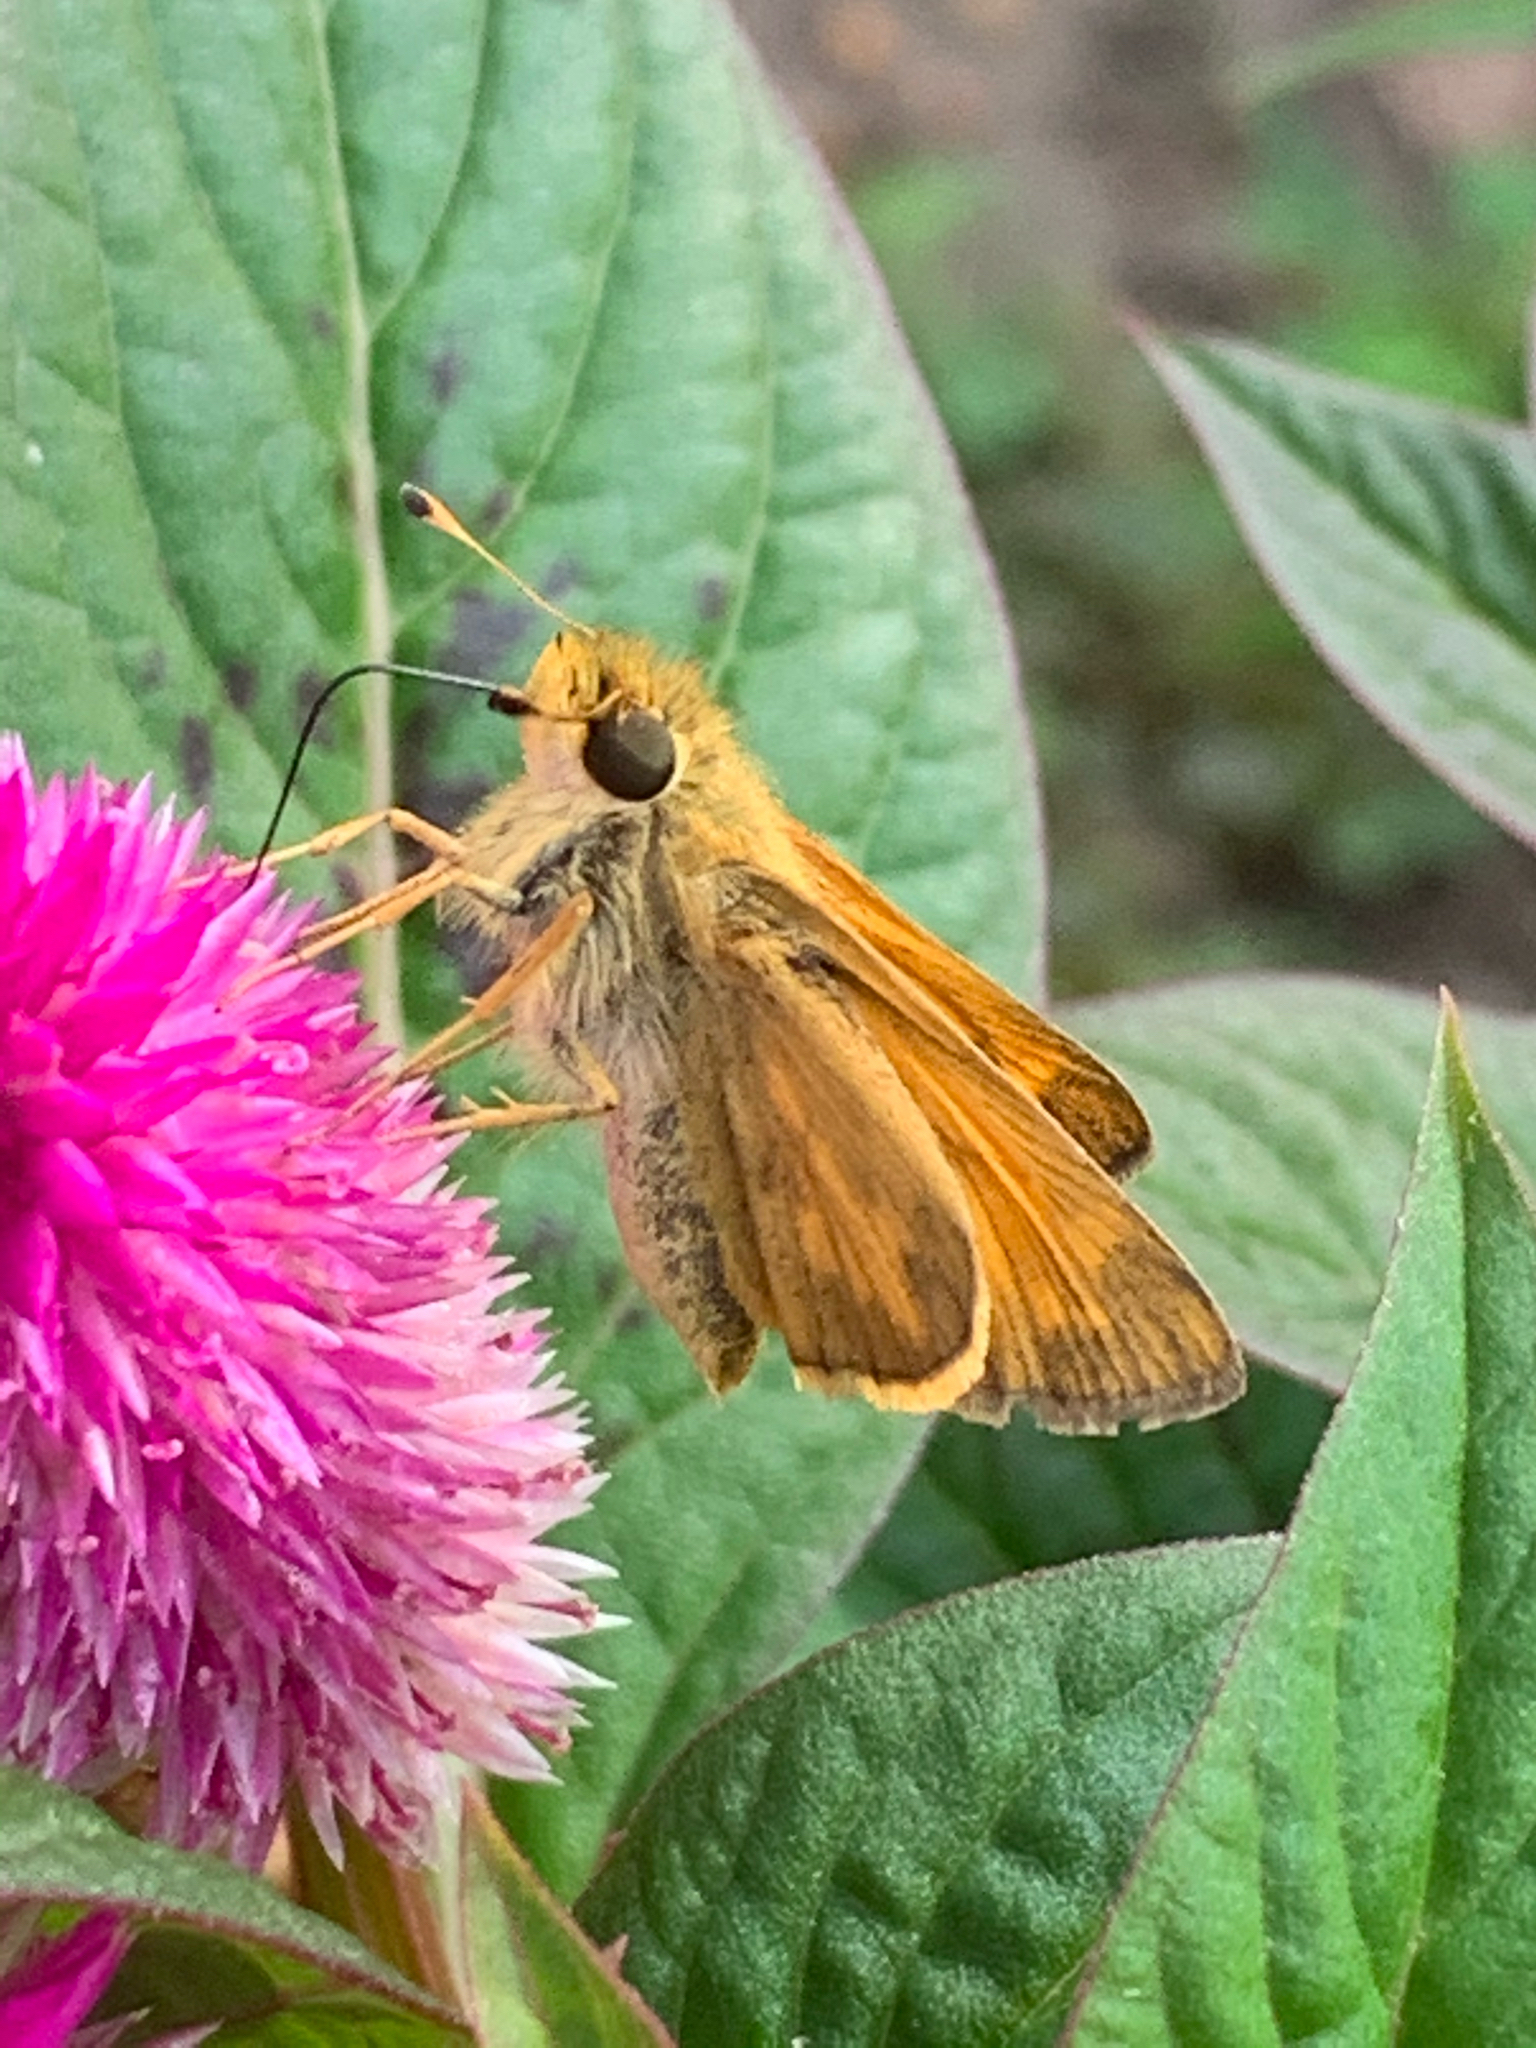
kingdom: Animalia
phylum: Arthropoda
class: Insecta
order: Lepidoptera
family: Hesperiidae
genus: Atalopedes
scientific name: Atalopedes
